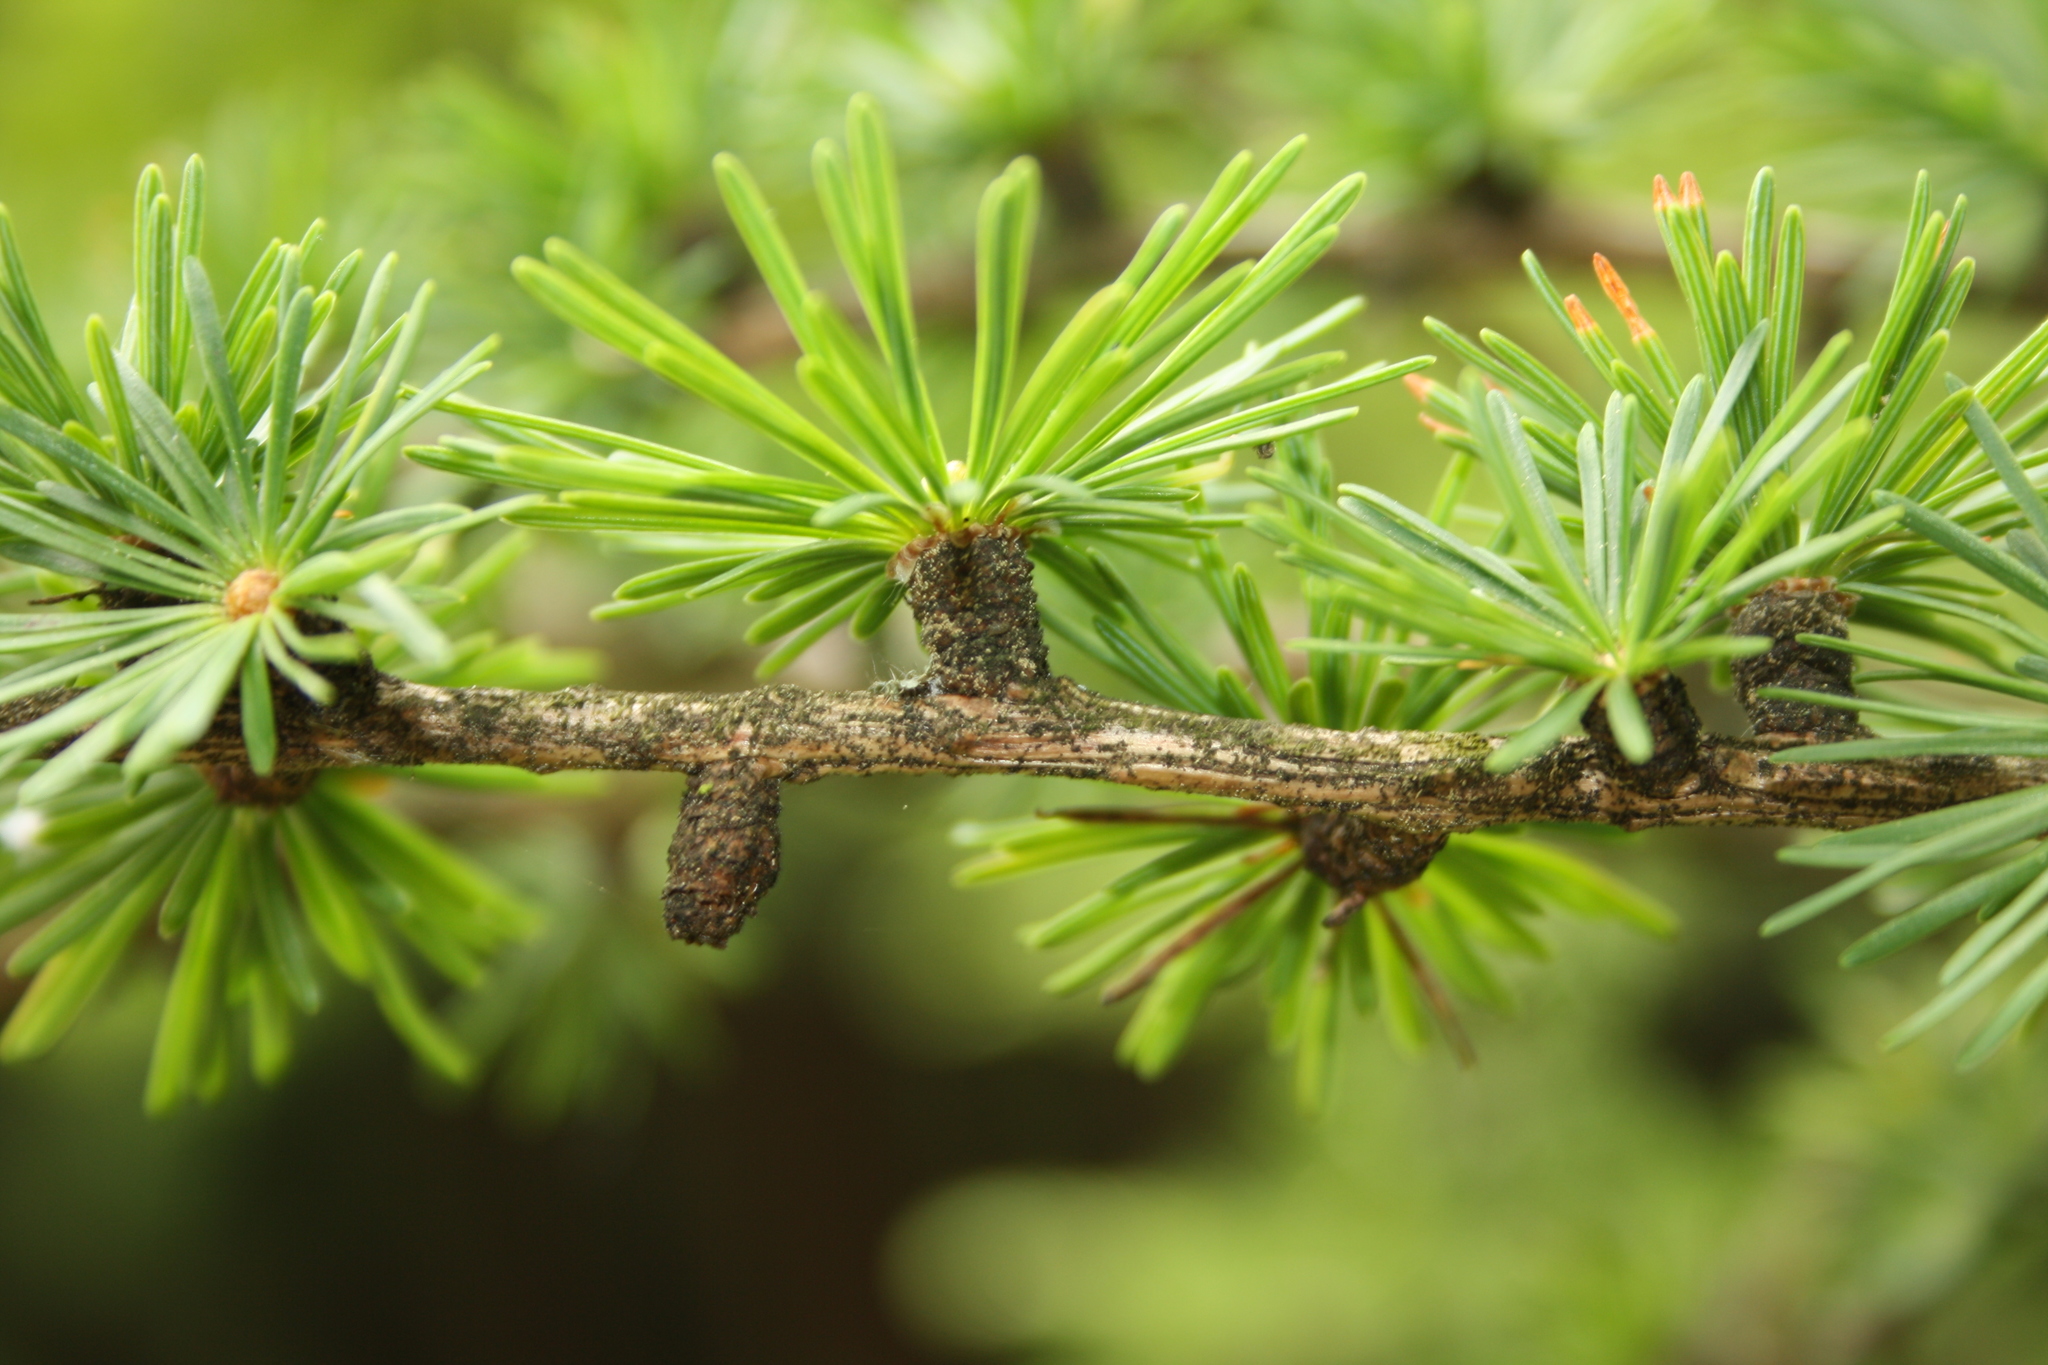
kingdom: Plantae
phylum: Tracheophyta
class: Pinopsida
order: Pinales
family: Pinaceae
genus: Larix
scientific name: Larix decidua
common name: European larch
